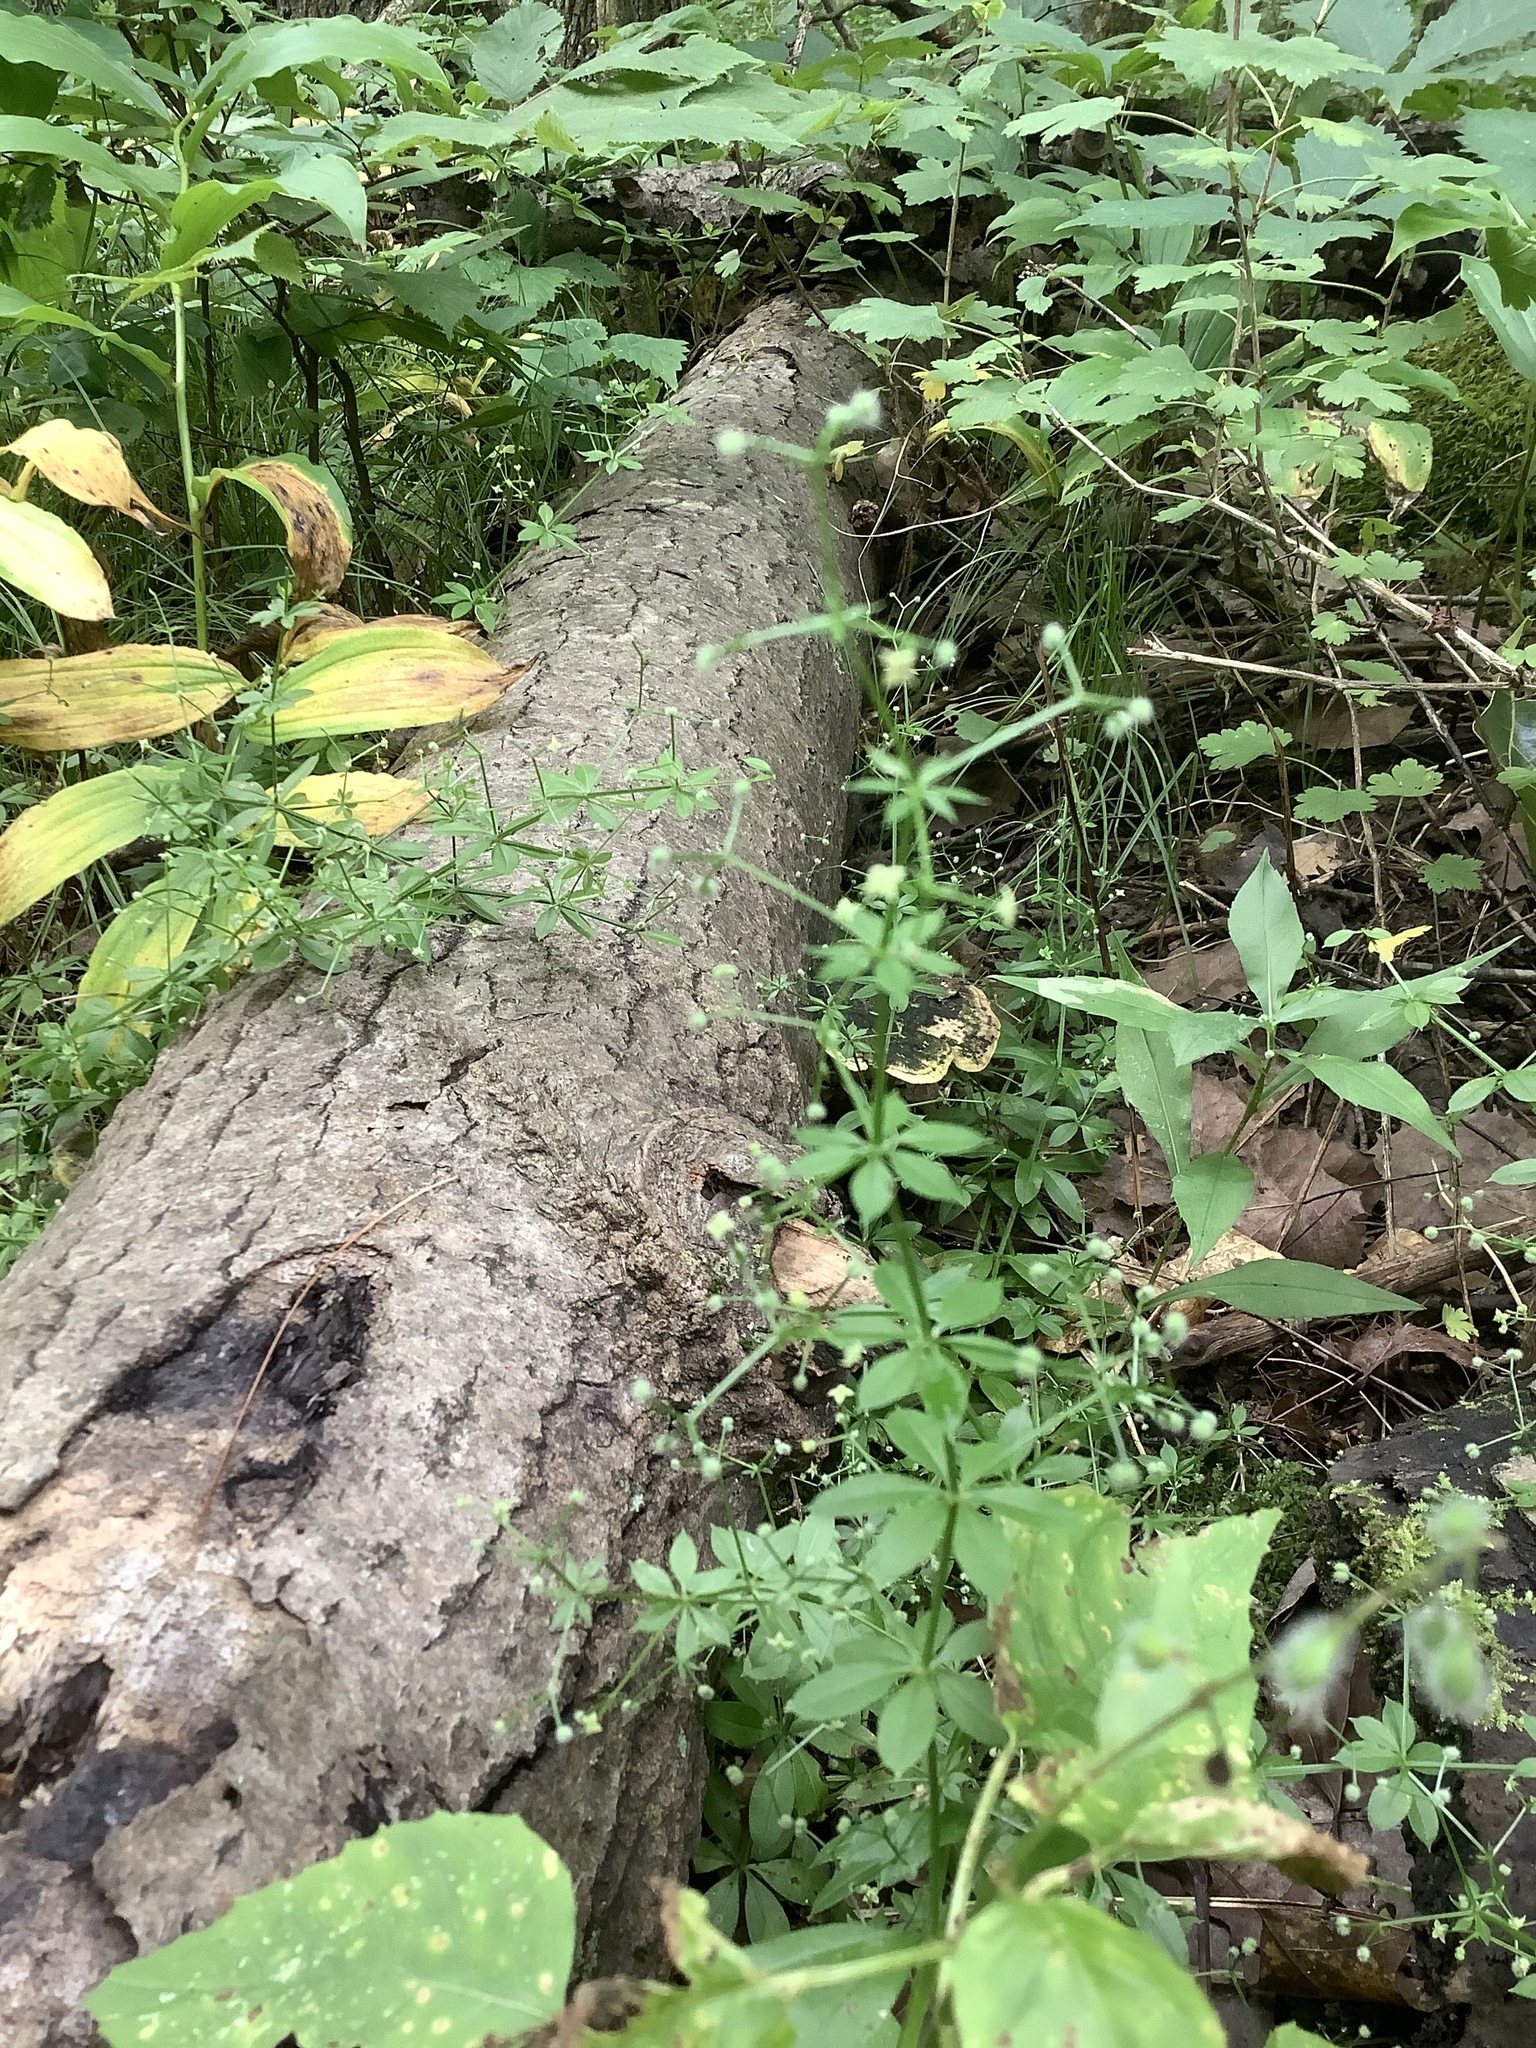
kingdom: Plantae
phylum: Tracheophyta
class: Magnoliopsida
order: Gentianales
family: Rubiaceae
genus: Galium
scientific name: Galium triflorum
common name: Fragrant bedstraw
